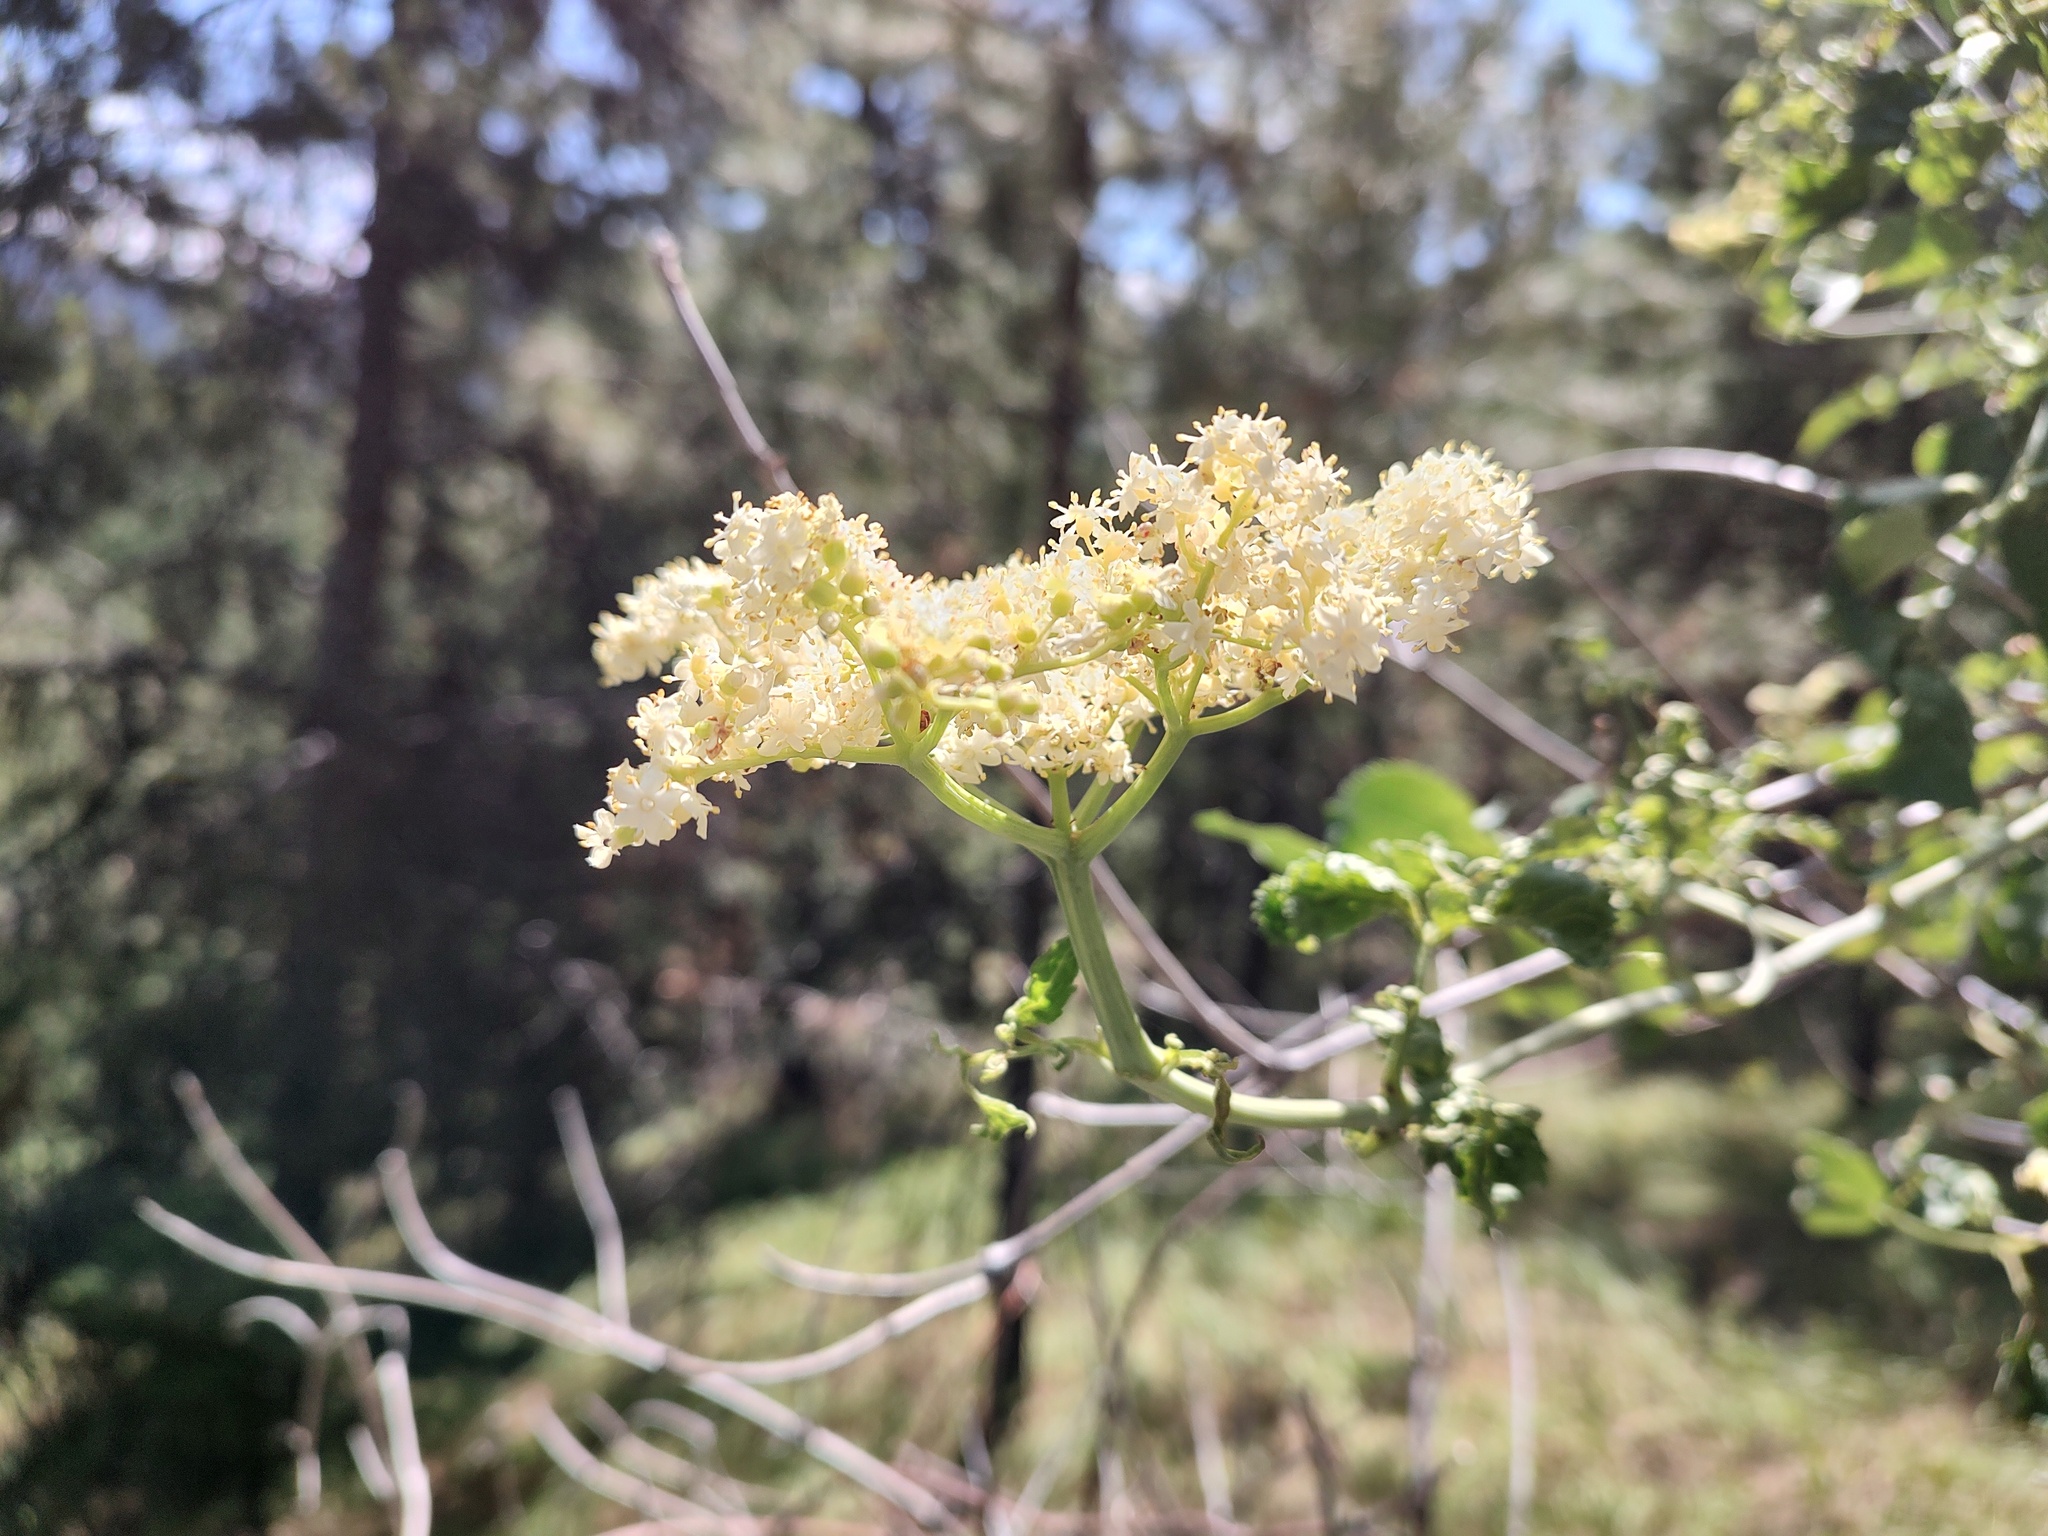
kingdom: Plantae
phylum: Tracheophyta
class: Magnoliopsida
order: Dipsacales
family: Viburnaceae
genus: Sambucus
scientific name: Sambucus cerulea
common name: Blue elder
